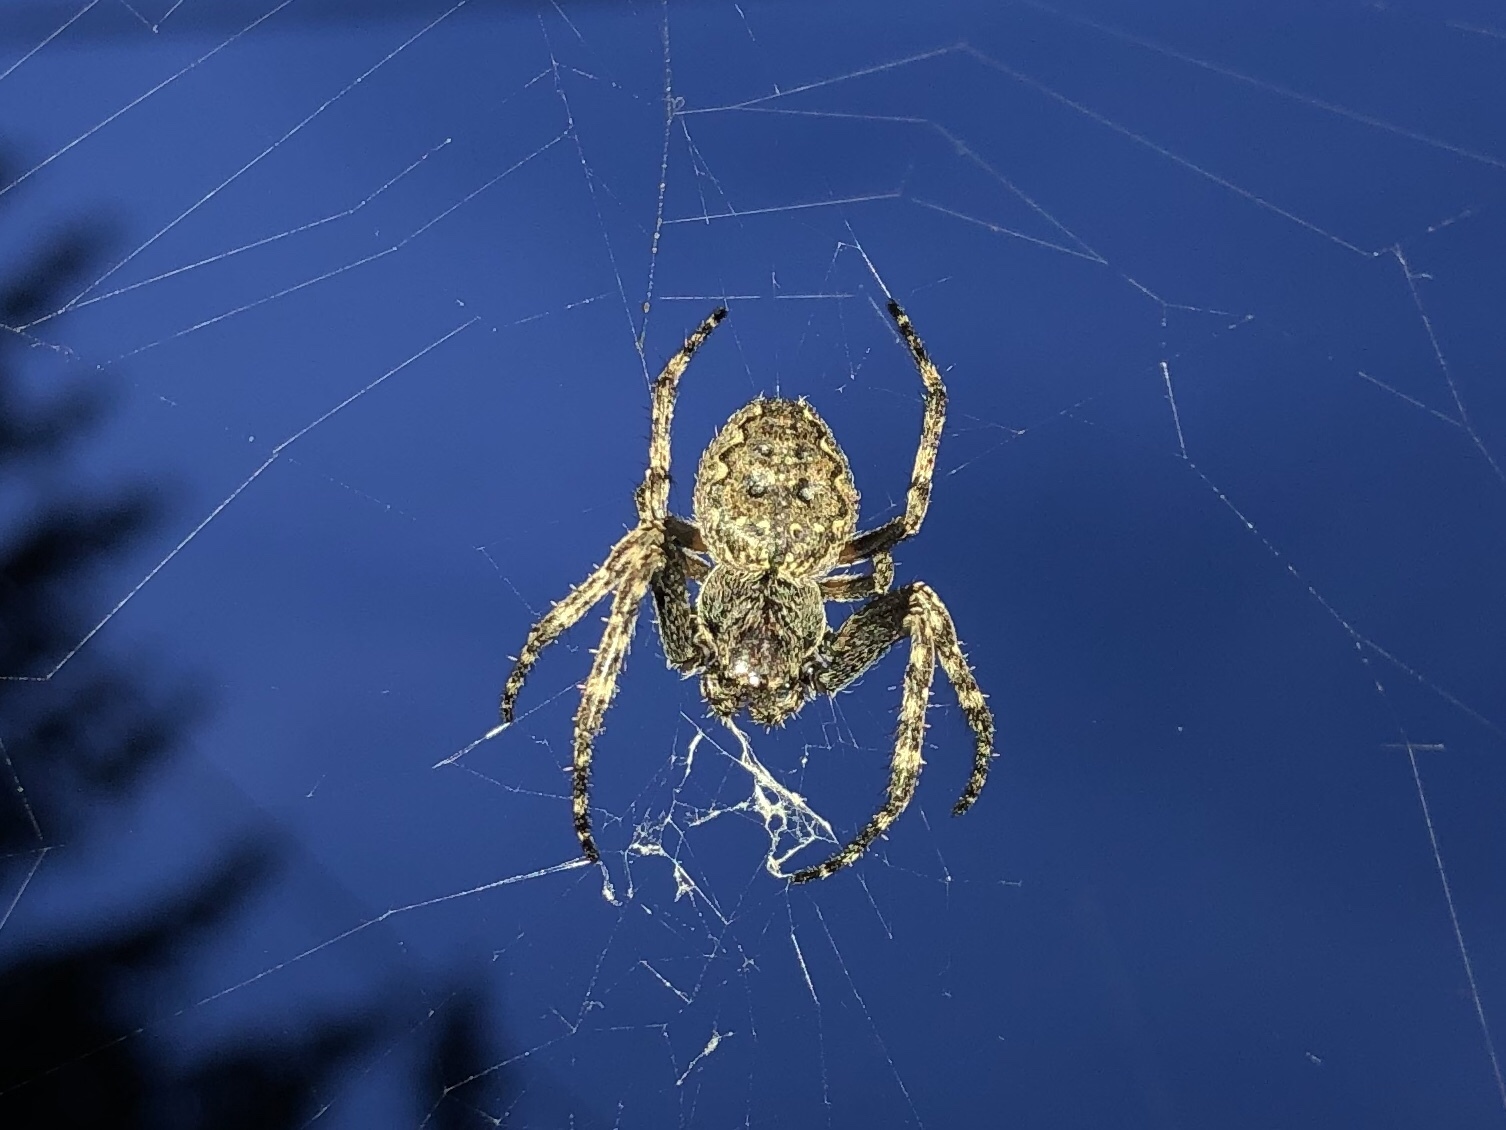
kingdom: Animalia
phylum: Arthropoda
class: Arachnida
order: Araneae
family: Araneidae
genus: Nuctenea
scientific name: Nuctenea umbratica
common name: Toad spider
